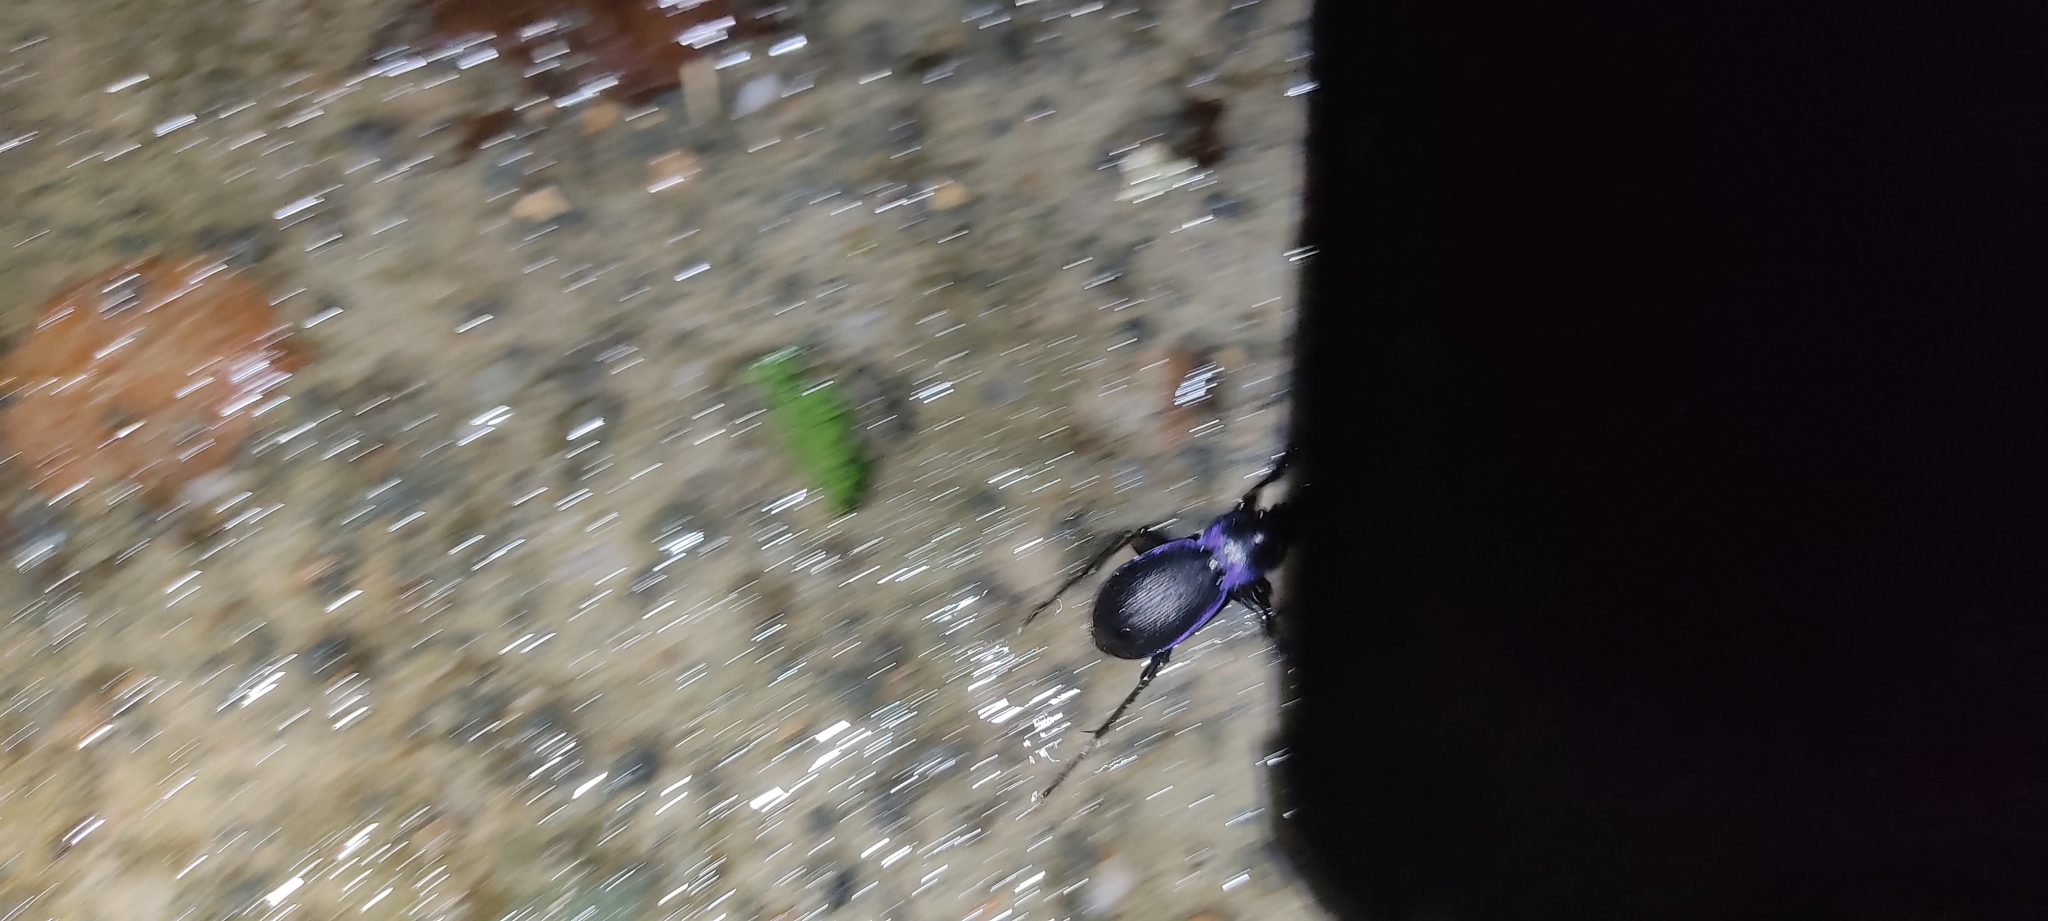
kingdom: Animalia
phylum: Arthropoda
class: Insecta
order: Coleoptera
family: Carabidae
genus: Carabus
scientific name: Carabus problematicus
